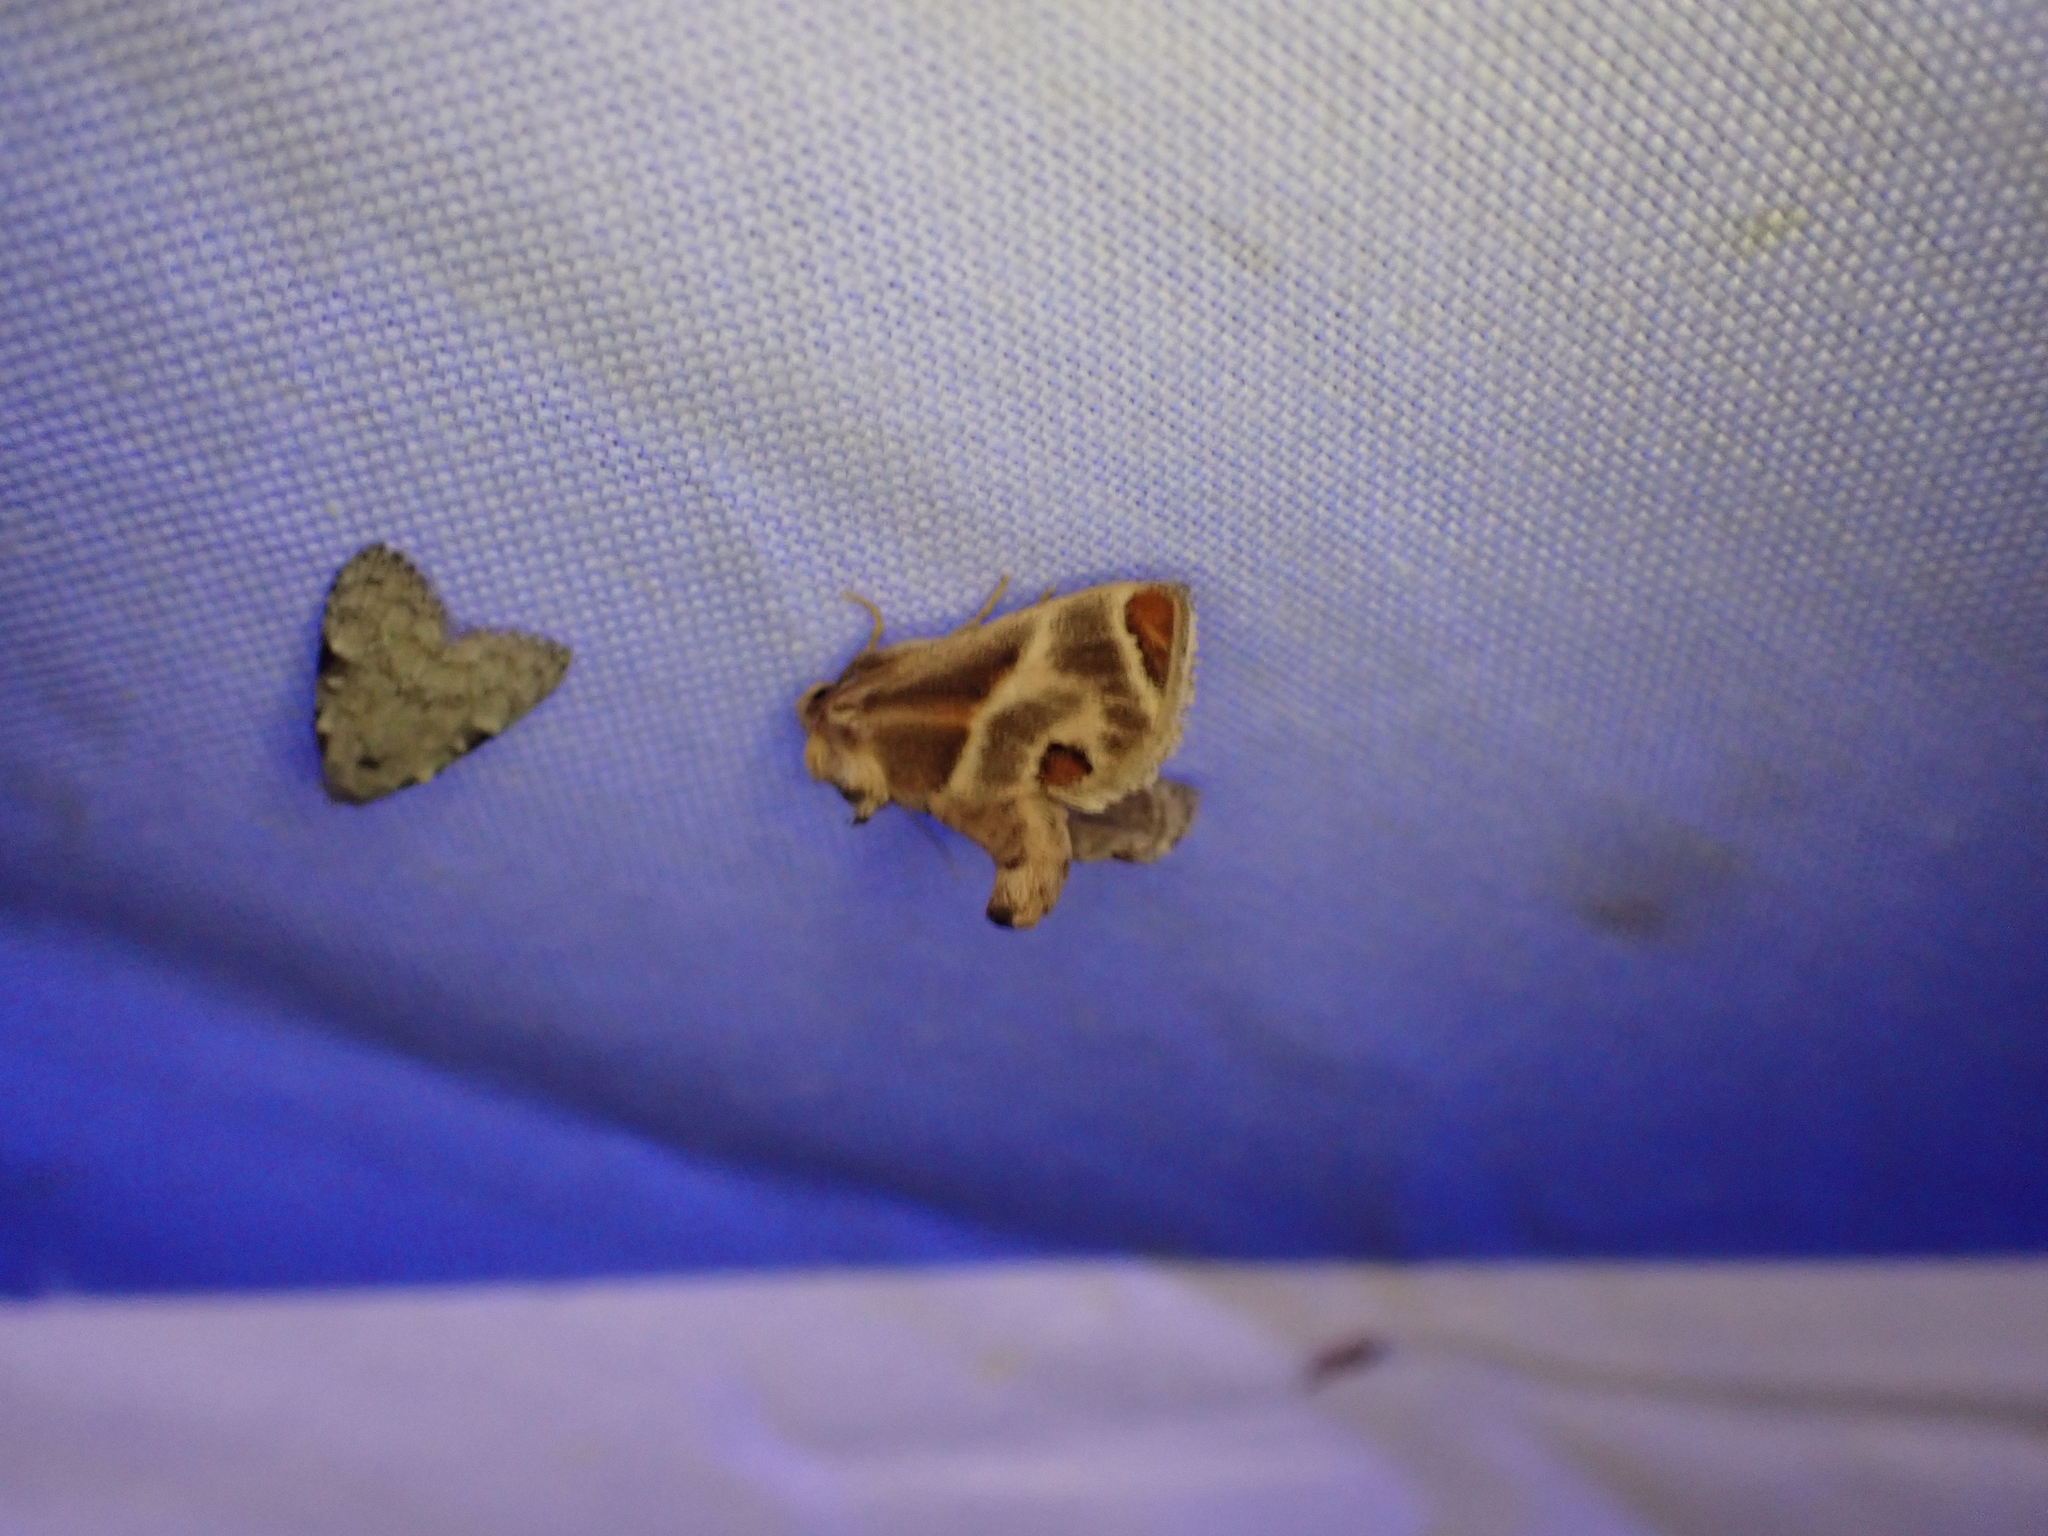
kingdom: Animalia
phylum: Arthropoda
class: Insecta
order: Lepidoptera
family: Limacodidae
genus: Apoda
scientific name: Apoda biguttata
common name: Shagreened slug moth
